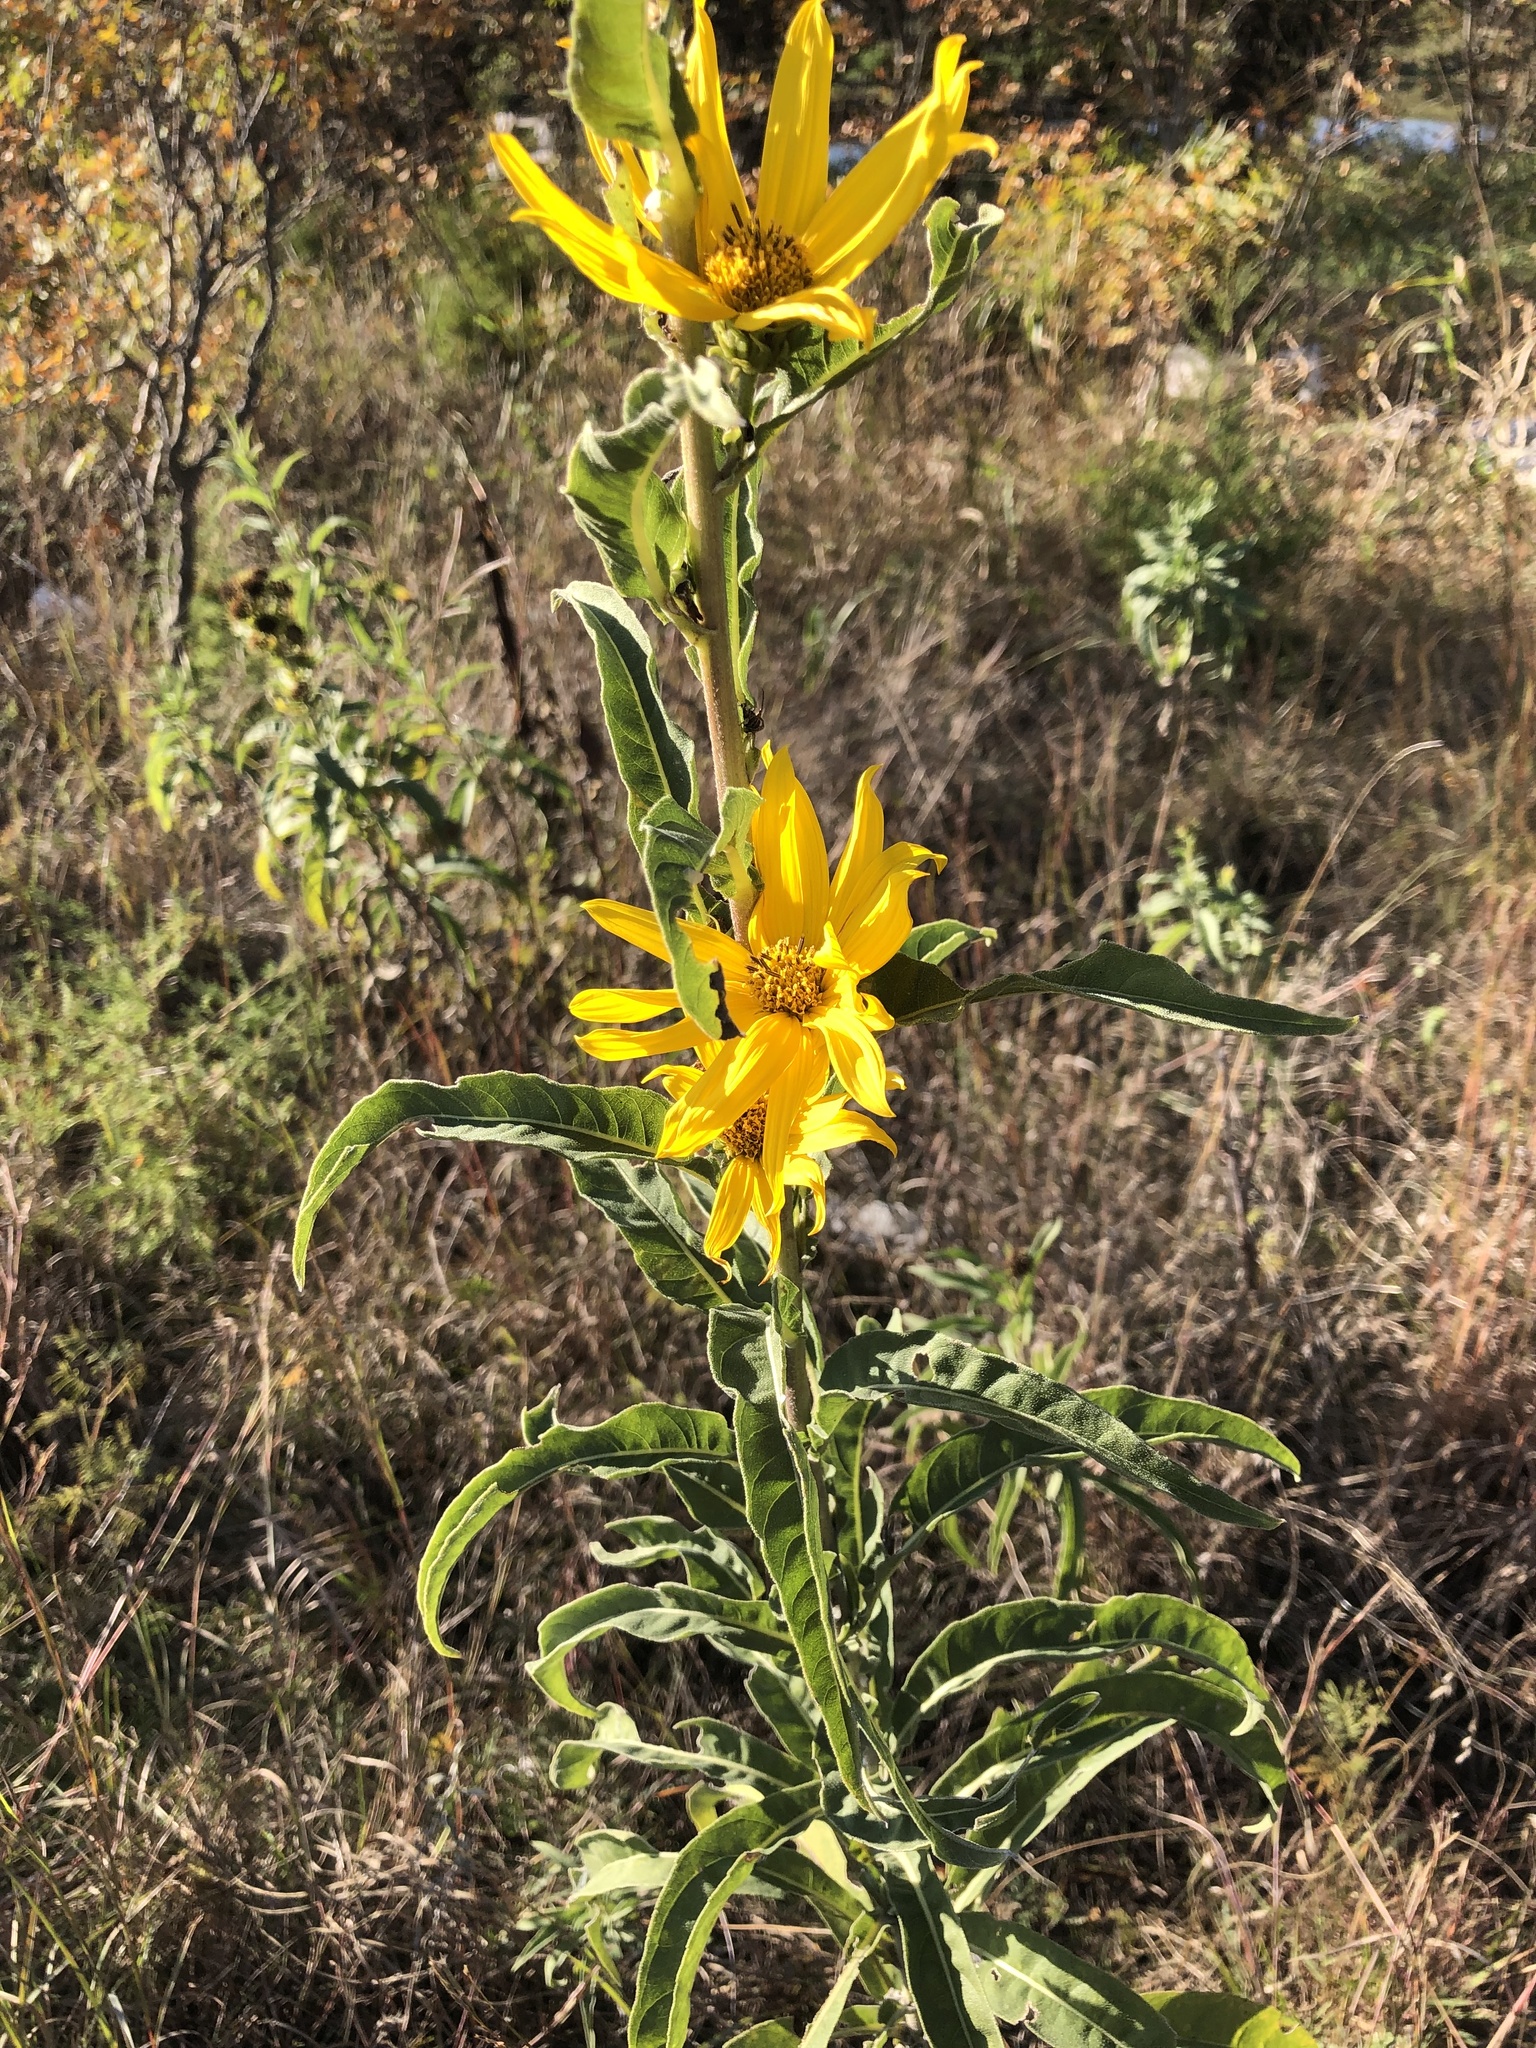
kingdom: Plantae
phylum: Tracheophyta
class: Magnoliopsida
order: Asterales
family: Asteraceae
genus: Helianthus
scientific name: Helianthus maximiliani
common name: Maximilian's sunflower
